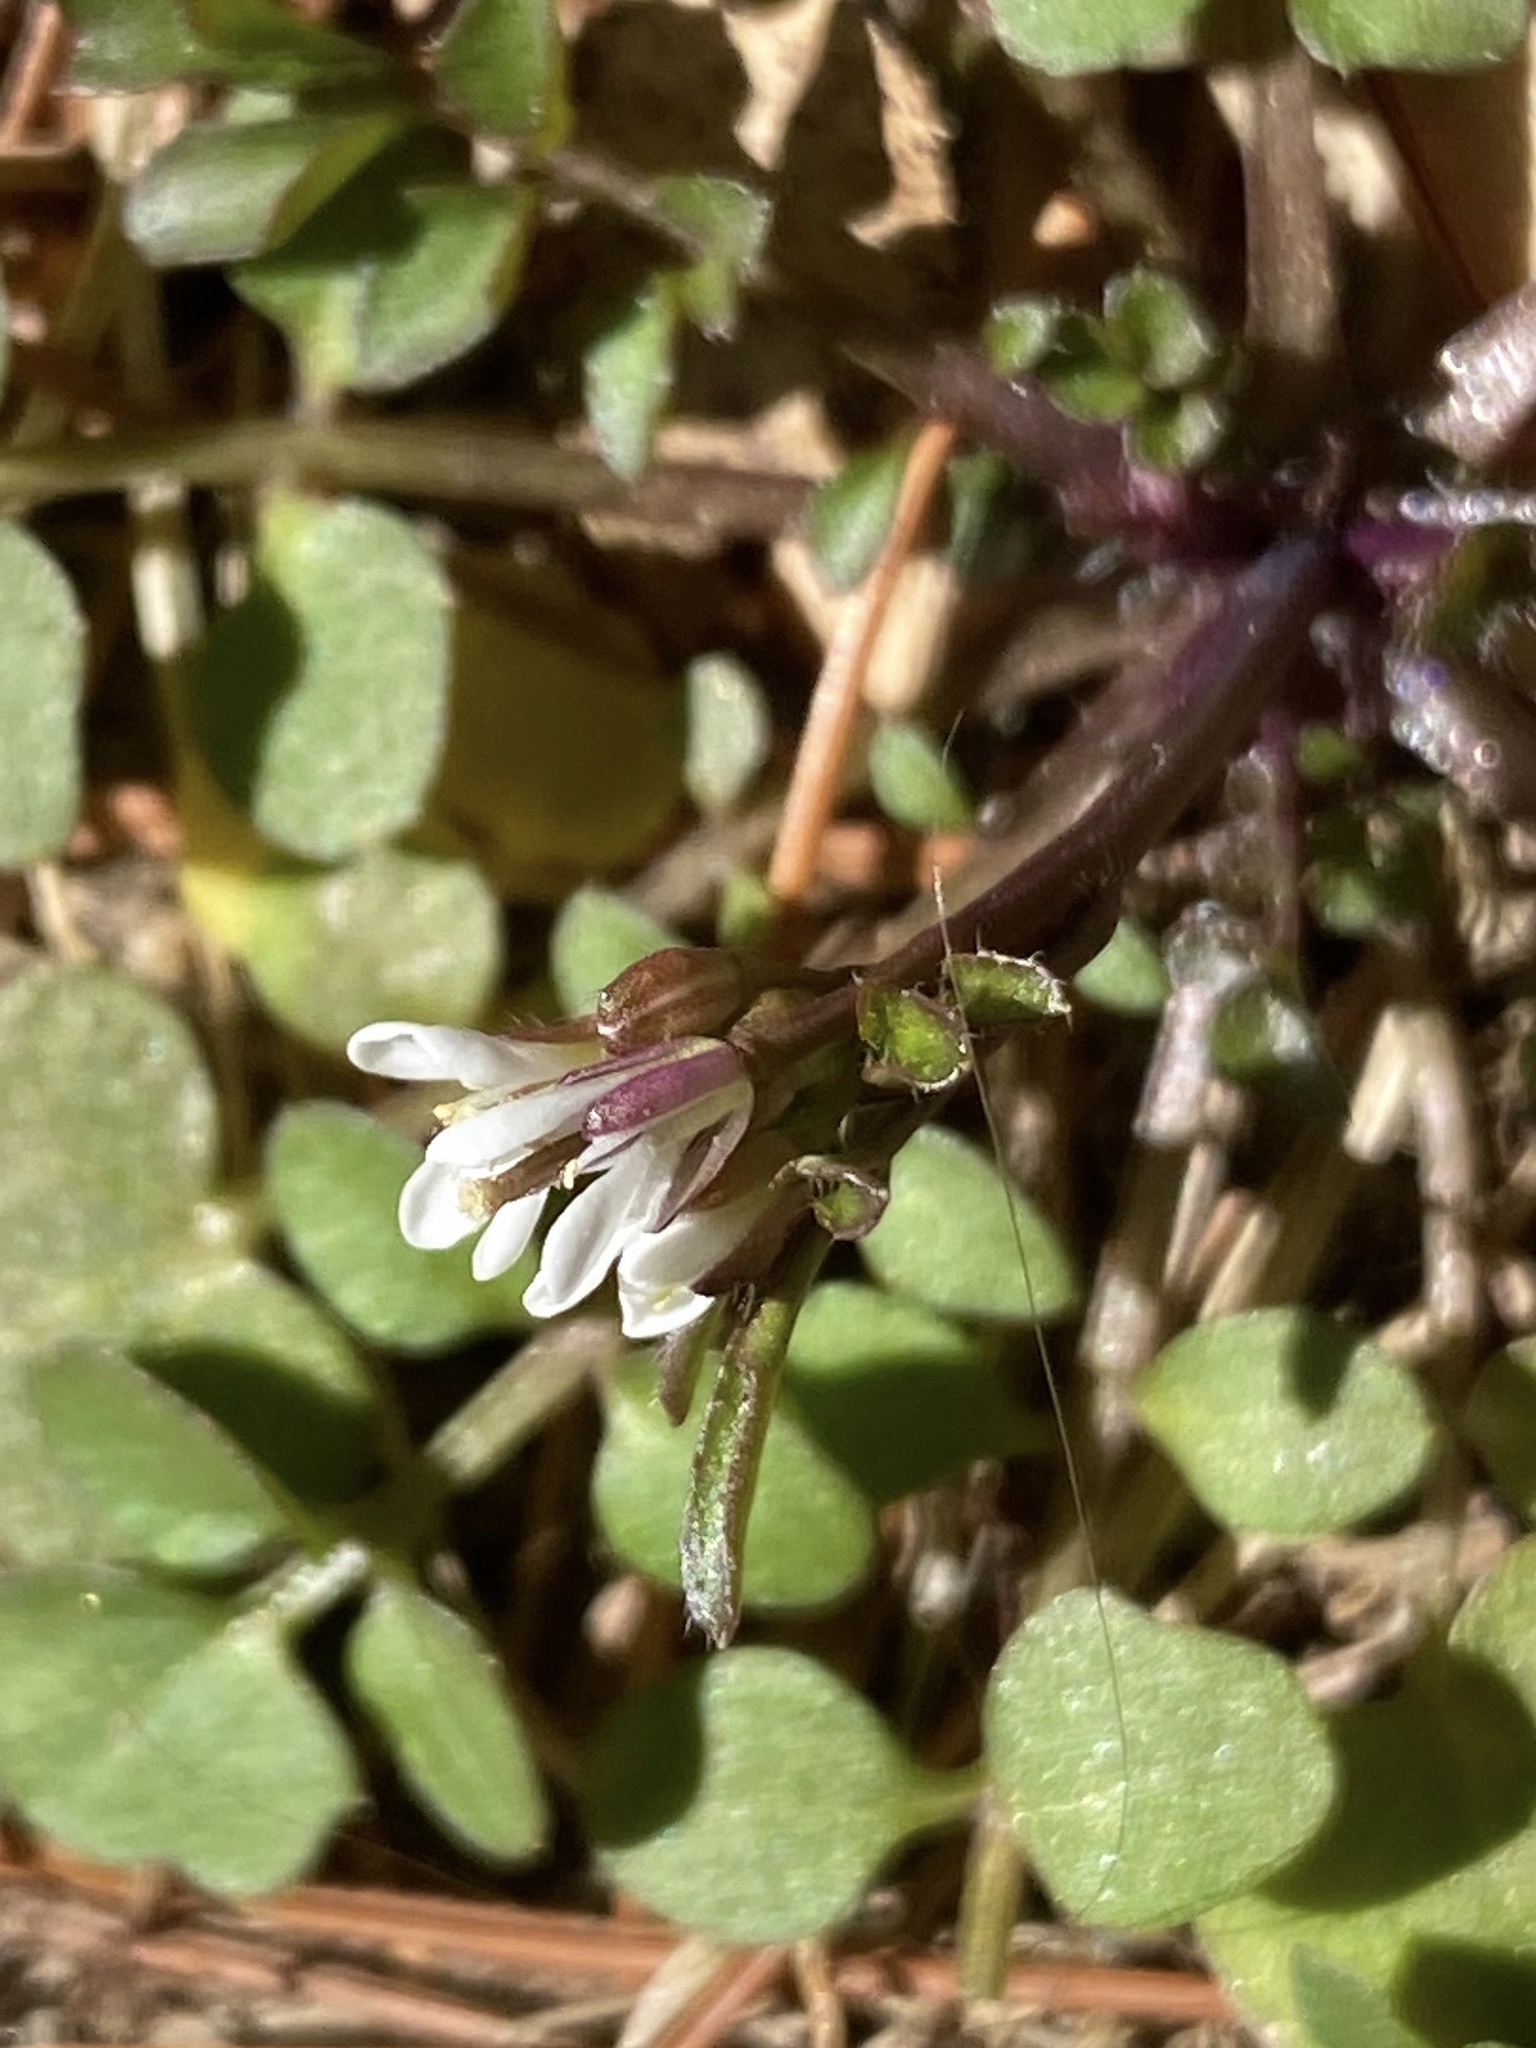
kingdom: Plantae
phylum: Tracheophyta
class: Magnoliopsida
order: Brassicales
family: Brassicaceae
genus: Cardamine
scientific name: Cardamine hirsuta
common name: Hairy bittercress
